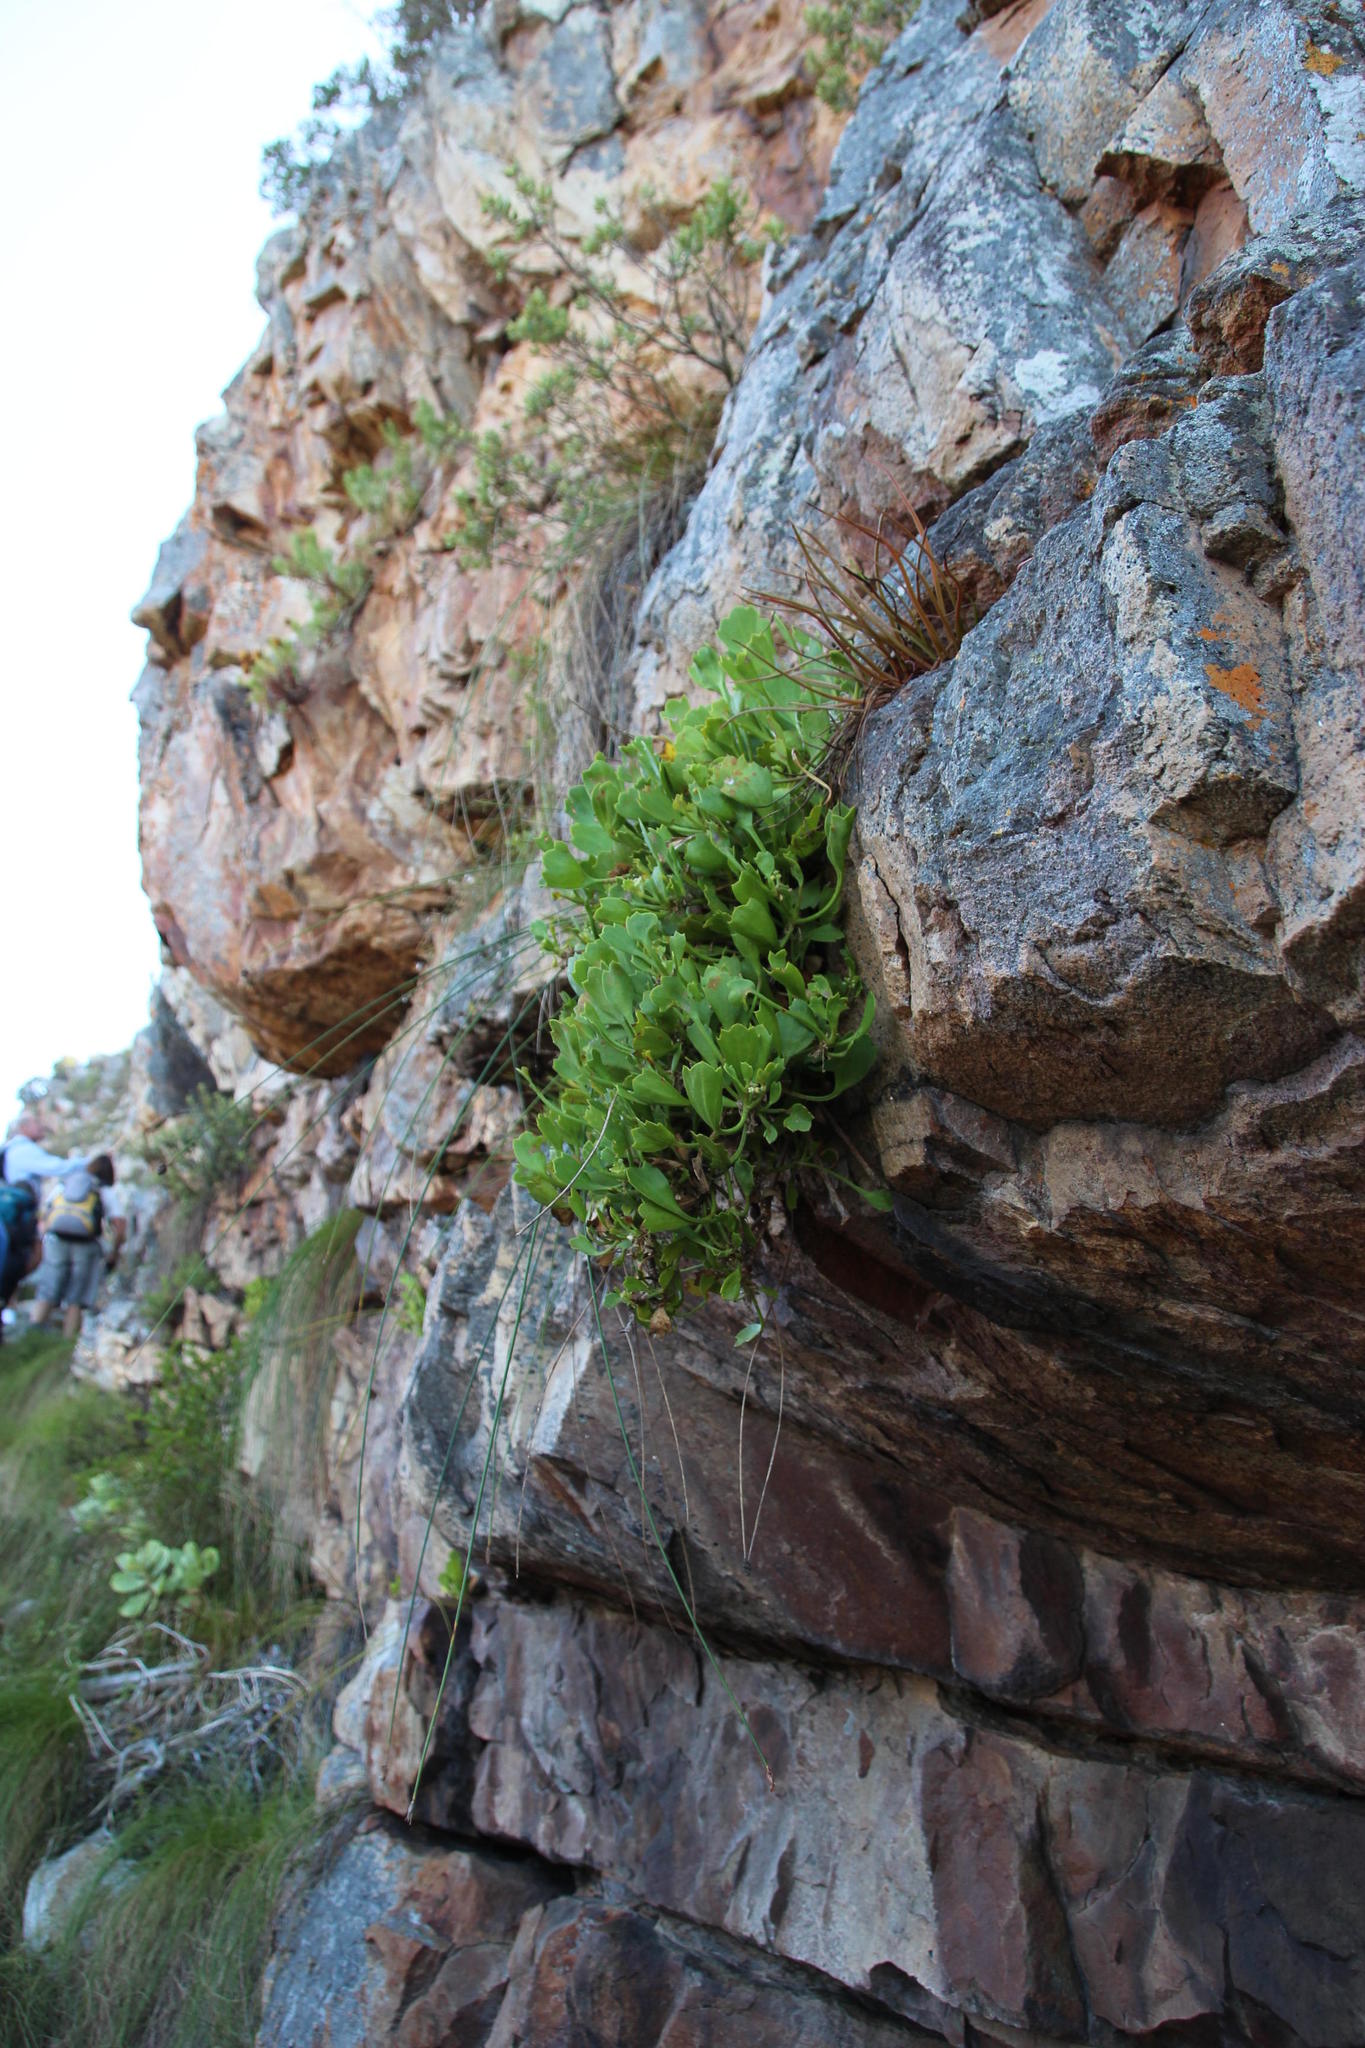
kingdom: Plantae
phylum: Tracheophyta
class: Magnoliopsida
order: Apiales
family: Apiaceae
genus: Centella
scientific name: Centella triloba
